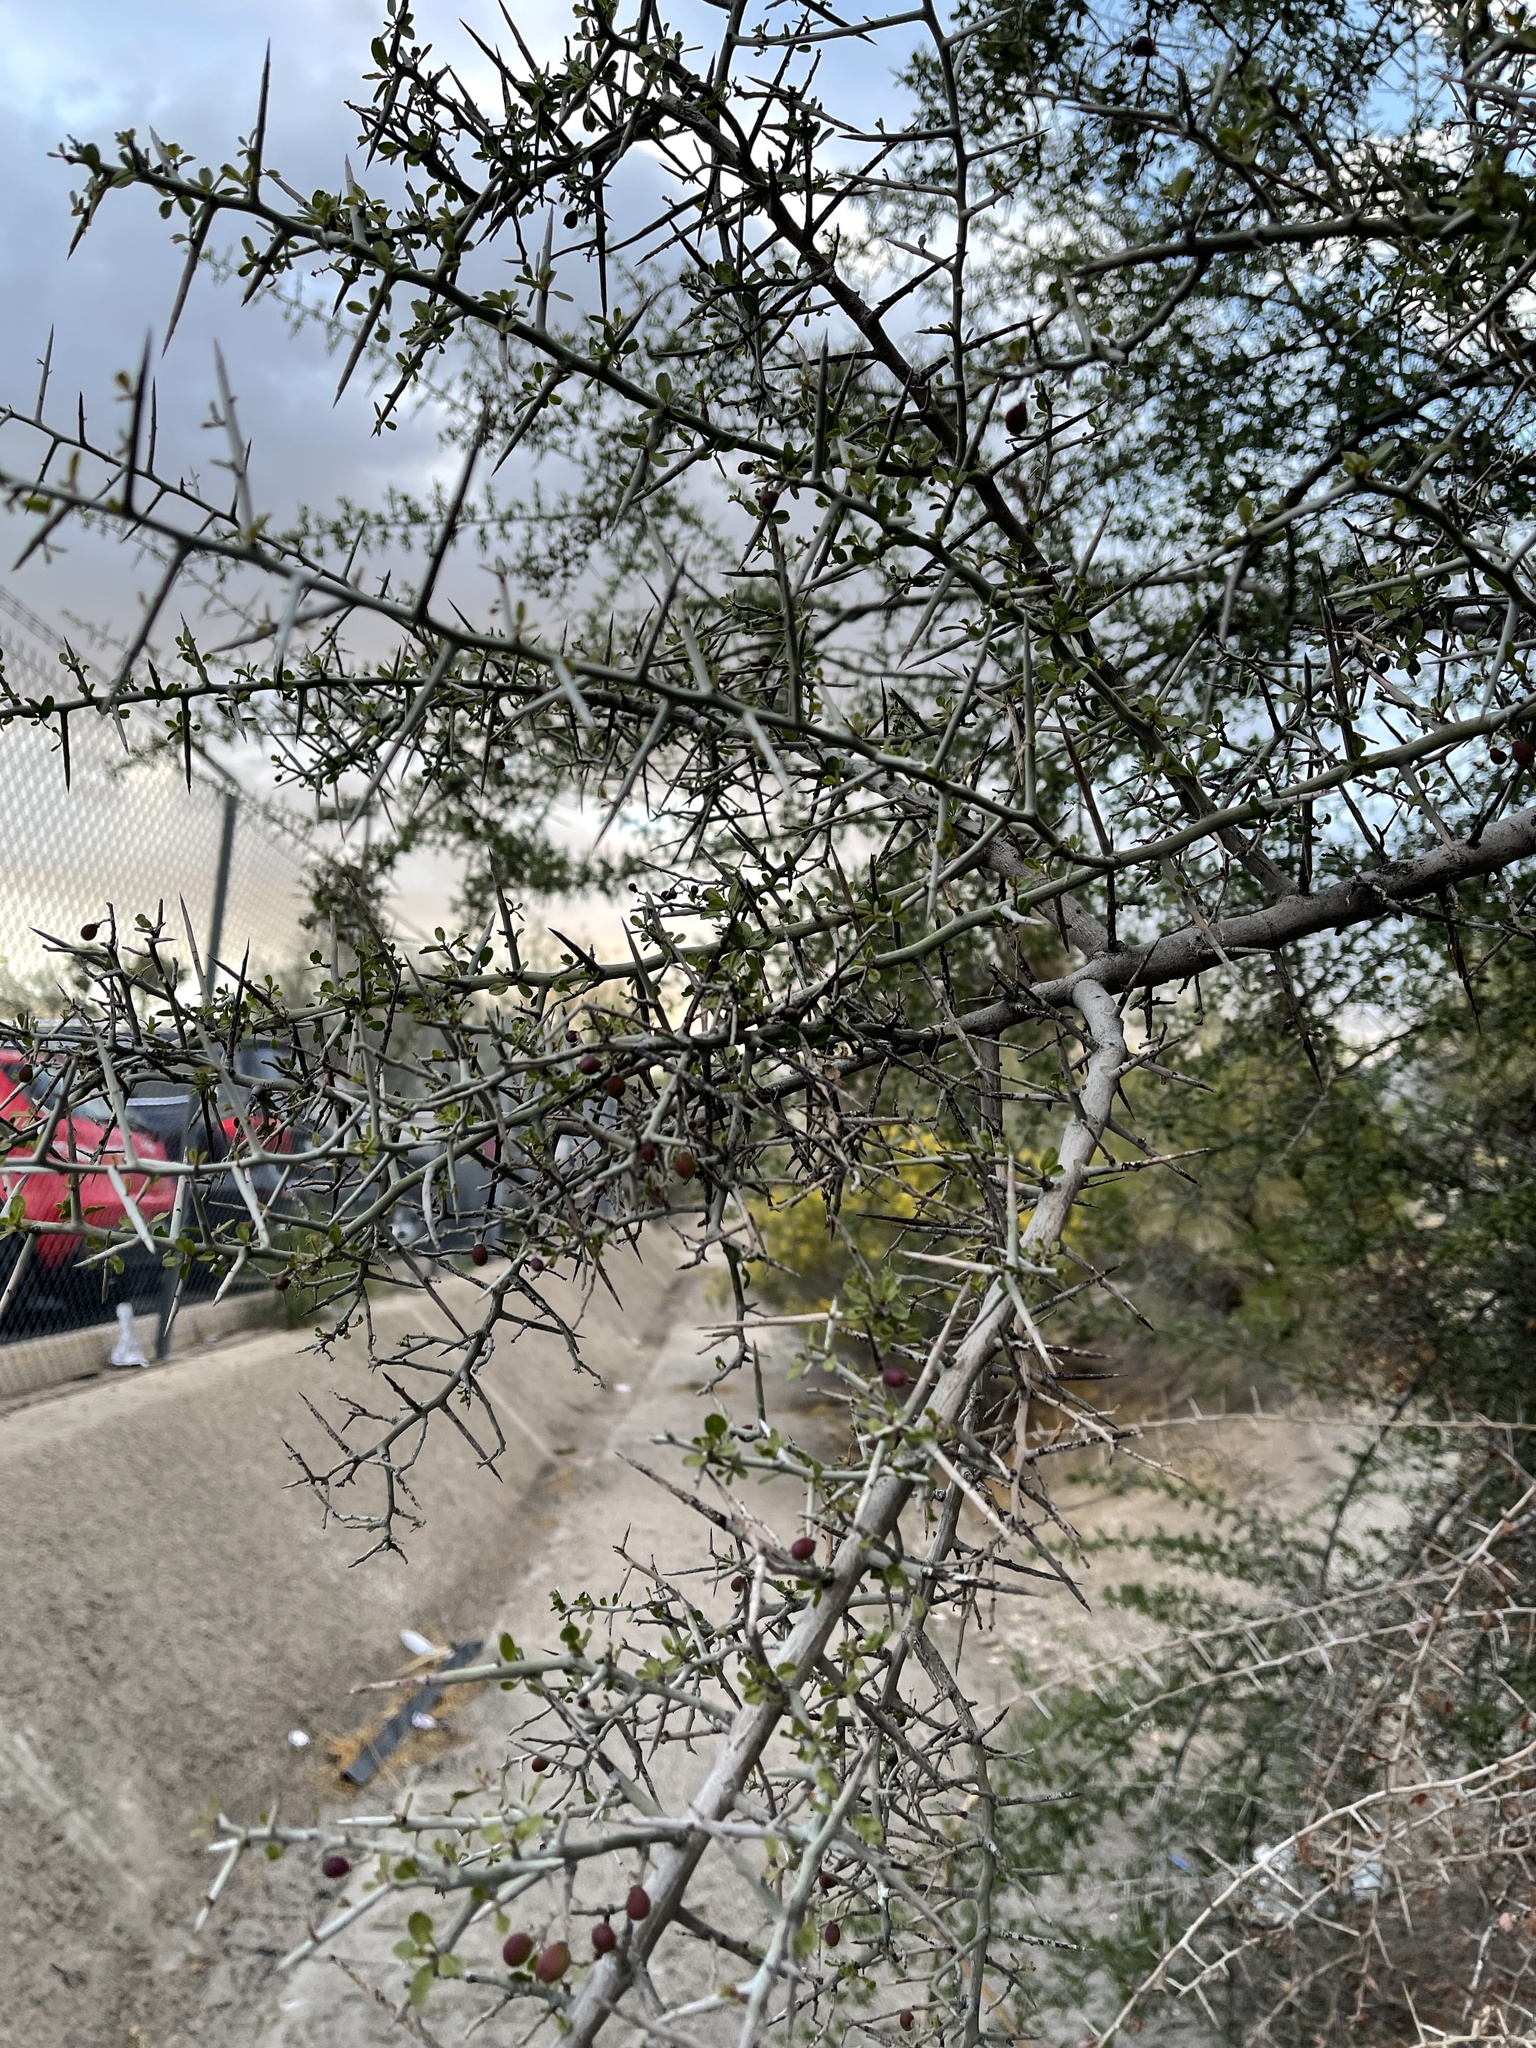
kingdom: Plantae
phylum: Tracheophyta
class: Magnoliopsida
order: Rosales
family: Rhamnaceae
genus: Sarcomphalus
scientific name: Sarcomphalus obtusifolius
